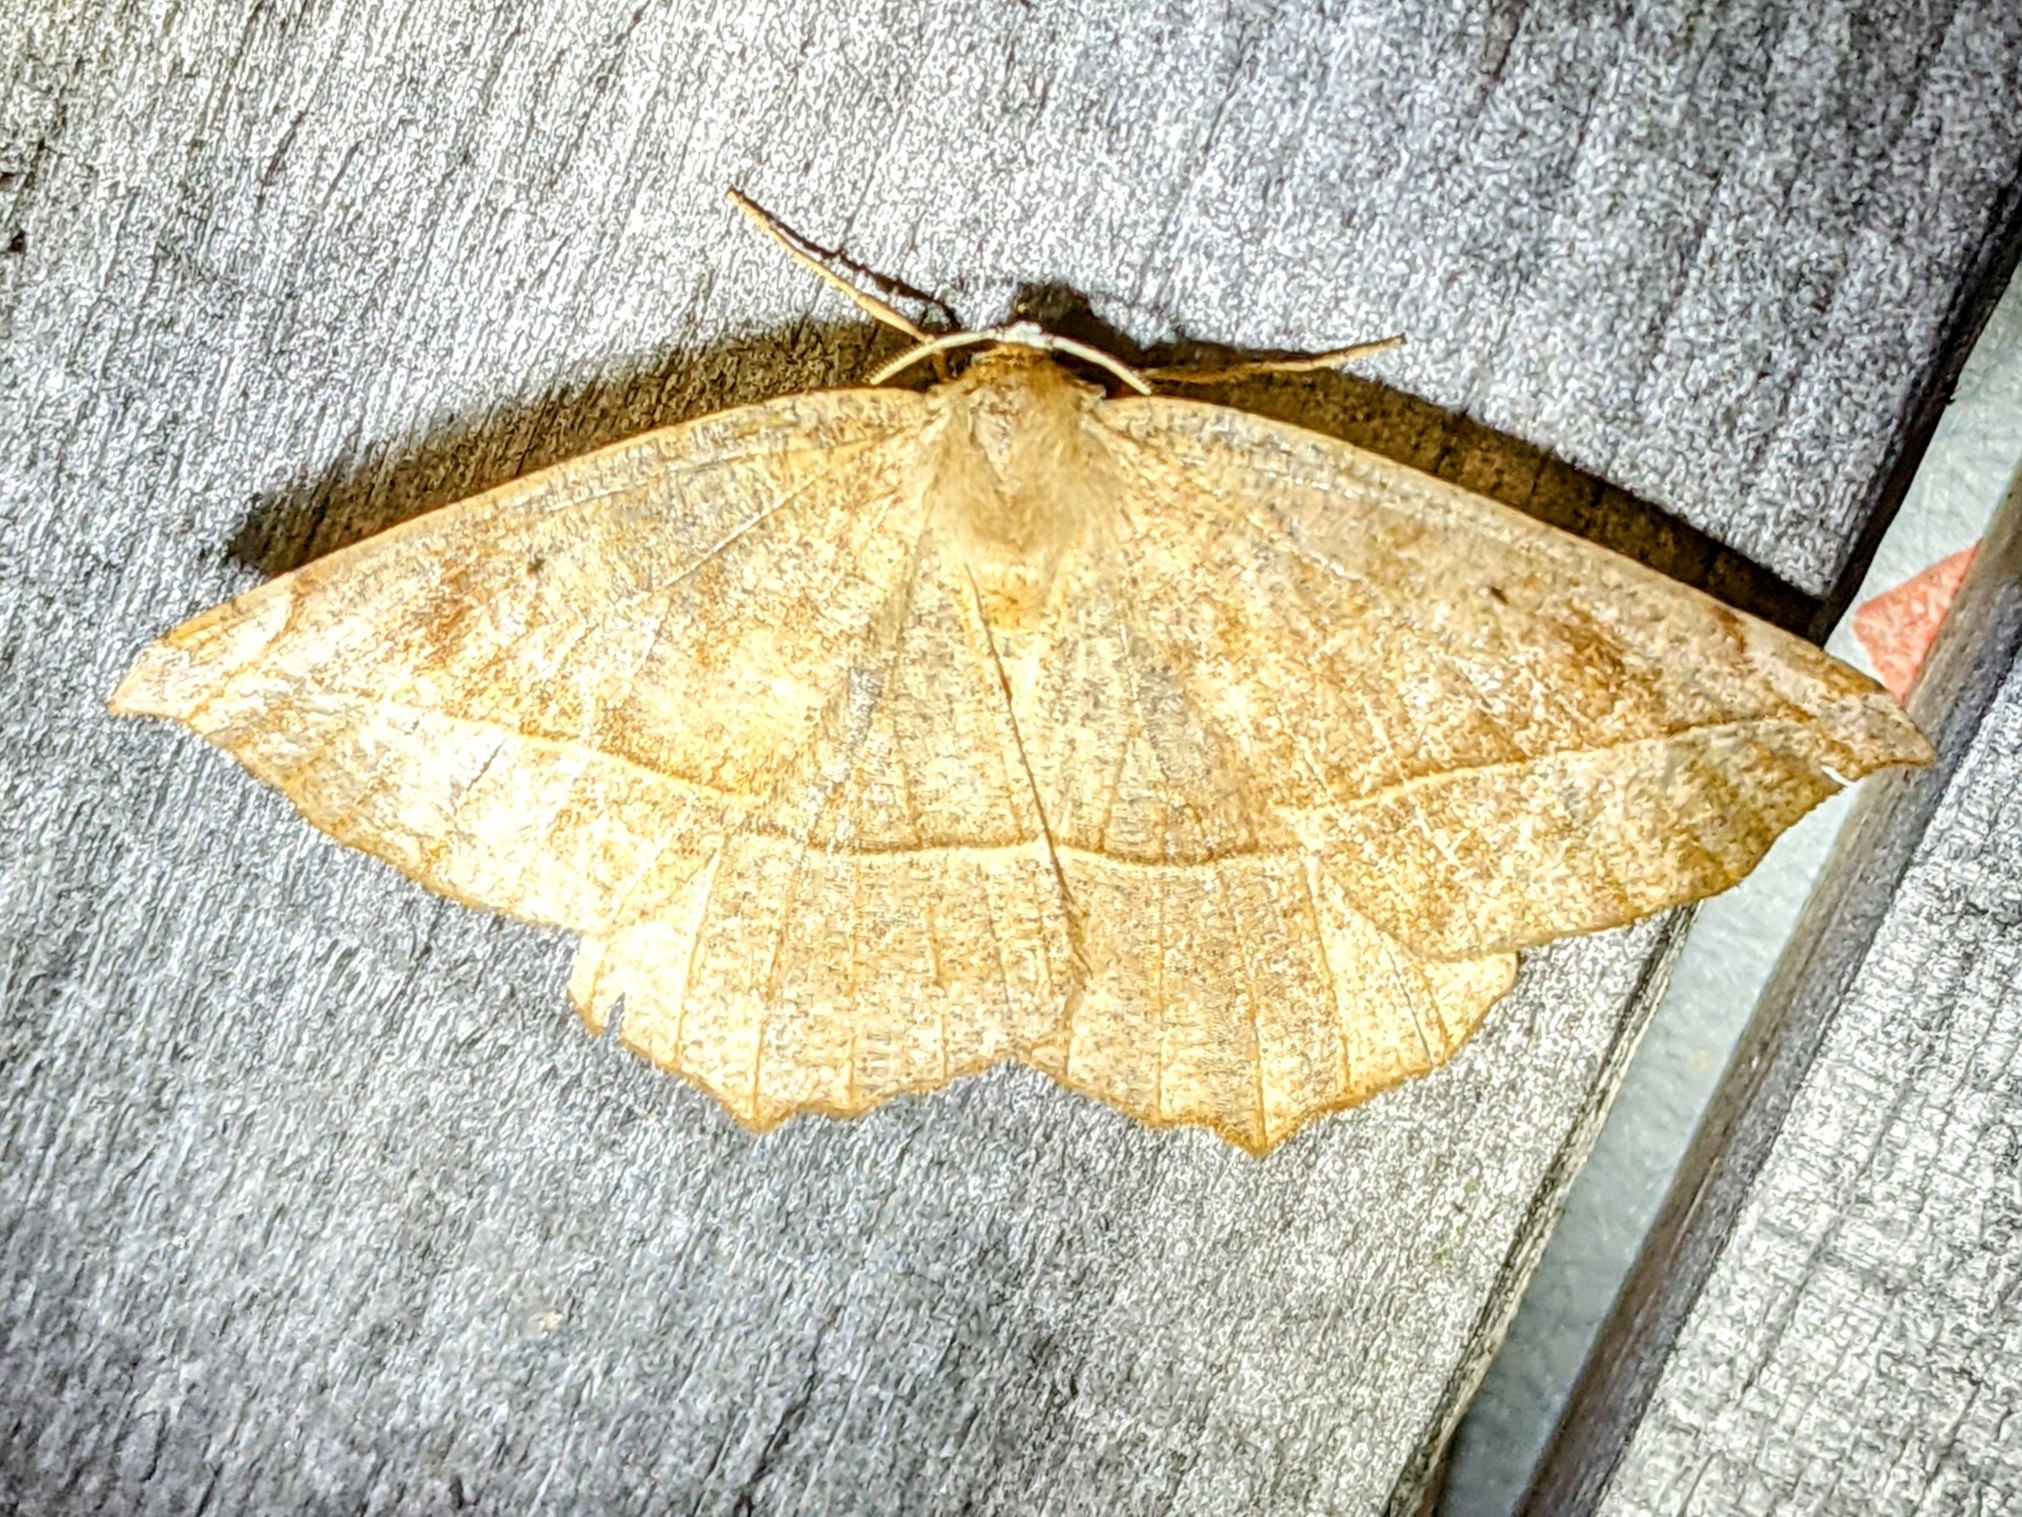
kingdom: Animalia
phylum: Arthropoda
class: Insecta
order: Lepidoptera
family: Geometridae
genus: Eutrapela
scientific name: Eutrapela clemataria
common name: Curved-toothed geometer
